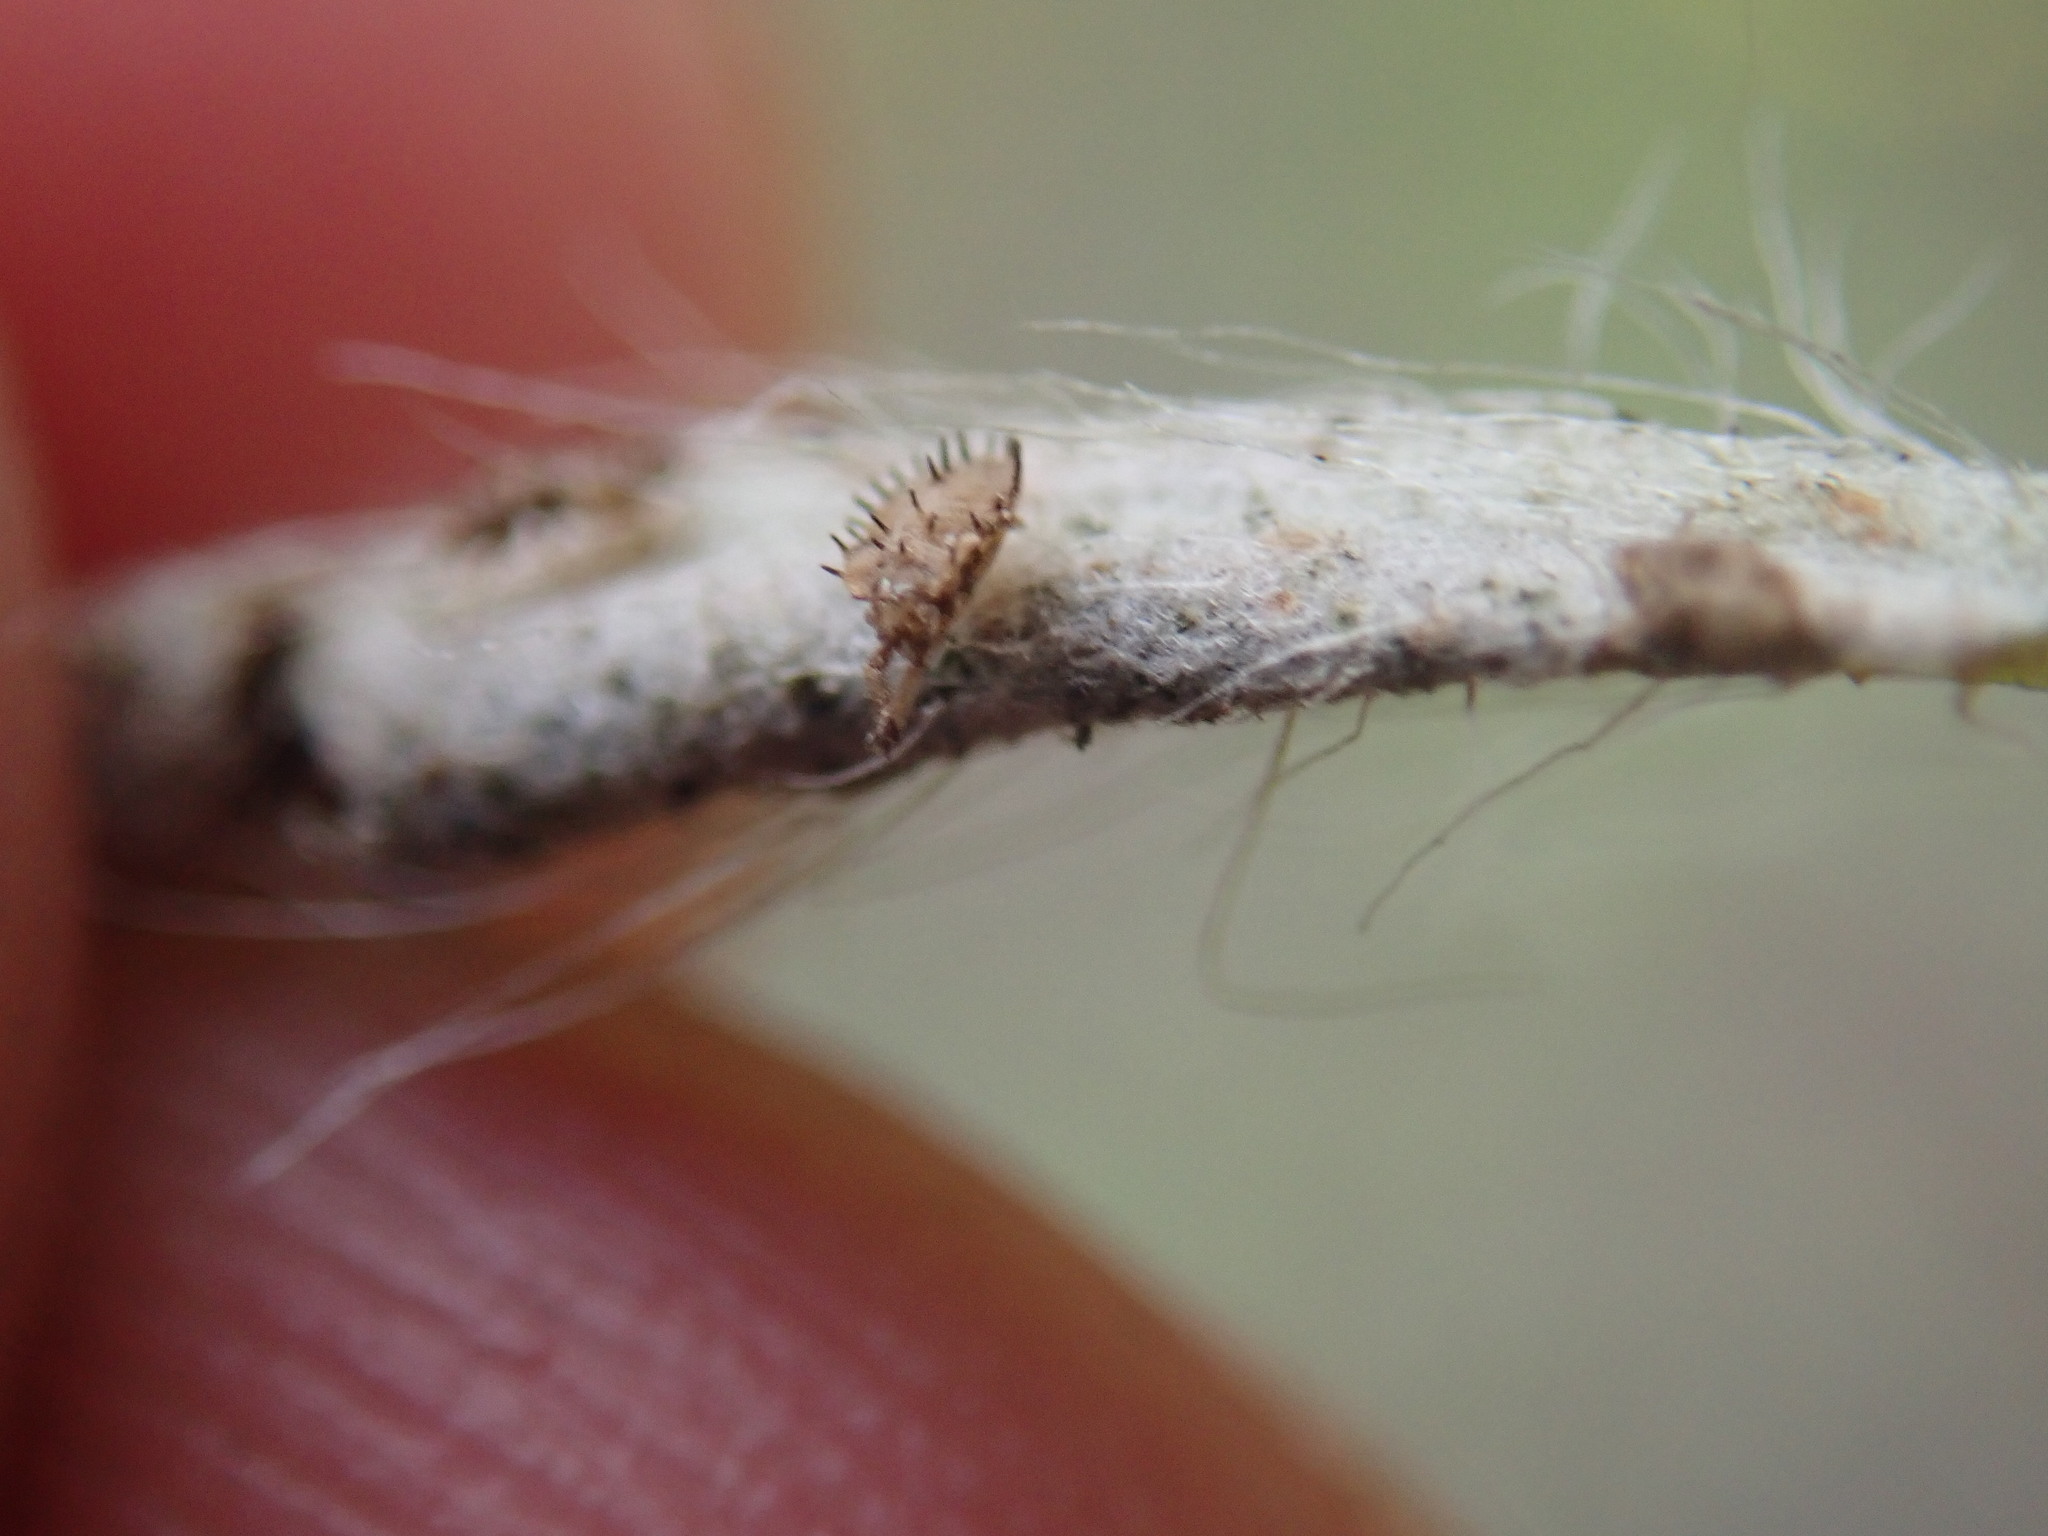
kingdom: Animalia
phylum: Arthropoda
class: Insecta
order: Hemiptera
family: Tingidae
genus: Galeatus
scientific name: Galeatus maculatus
